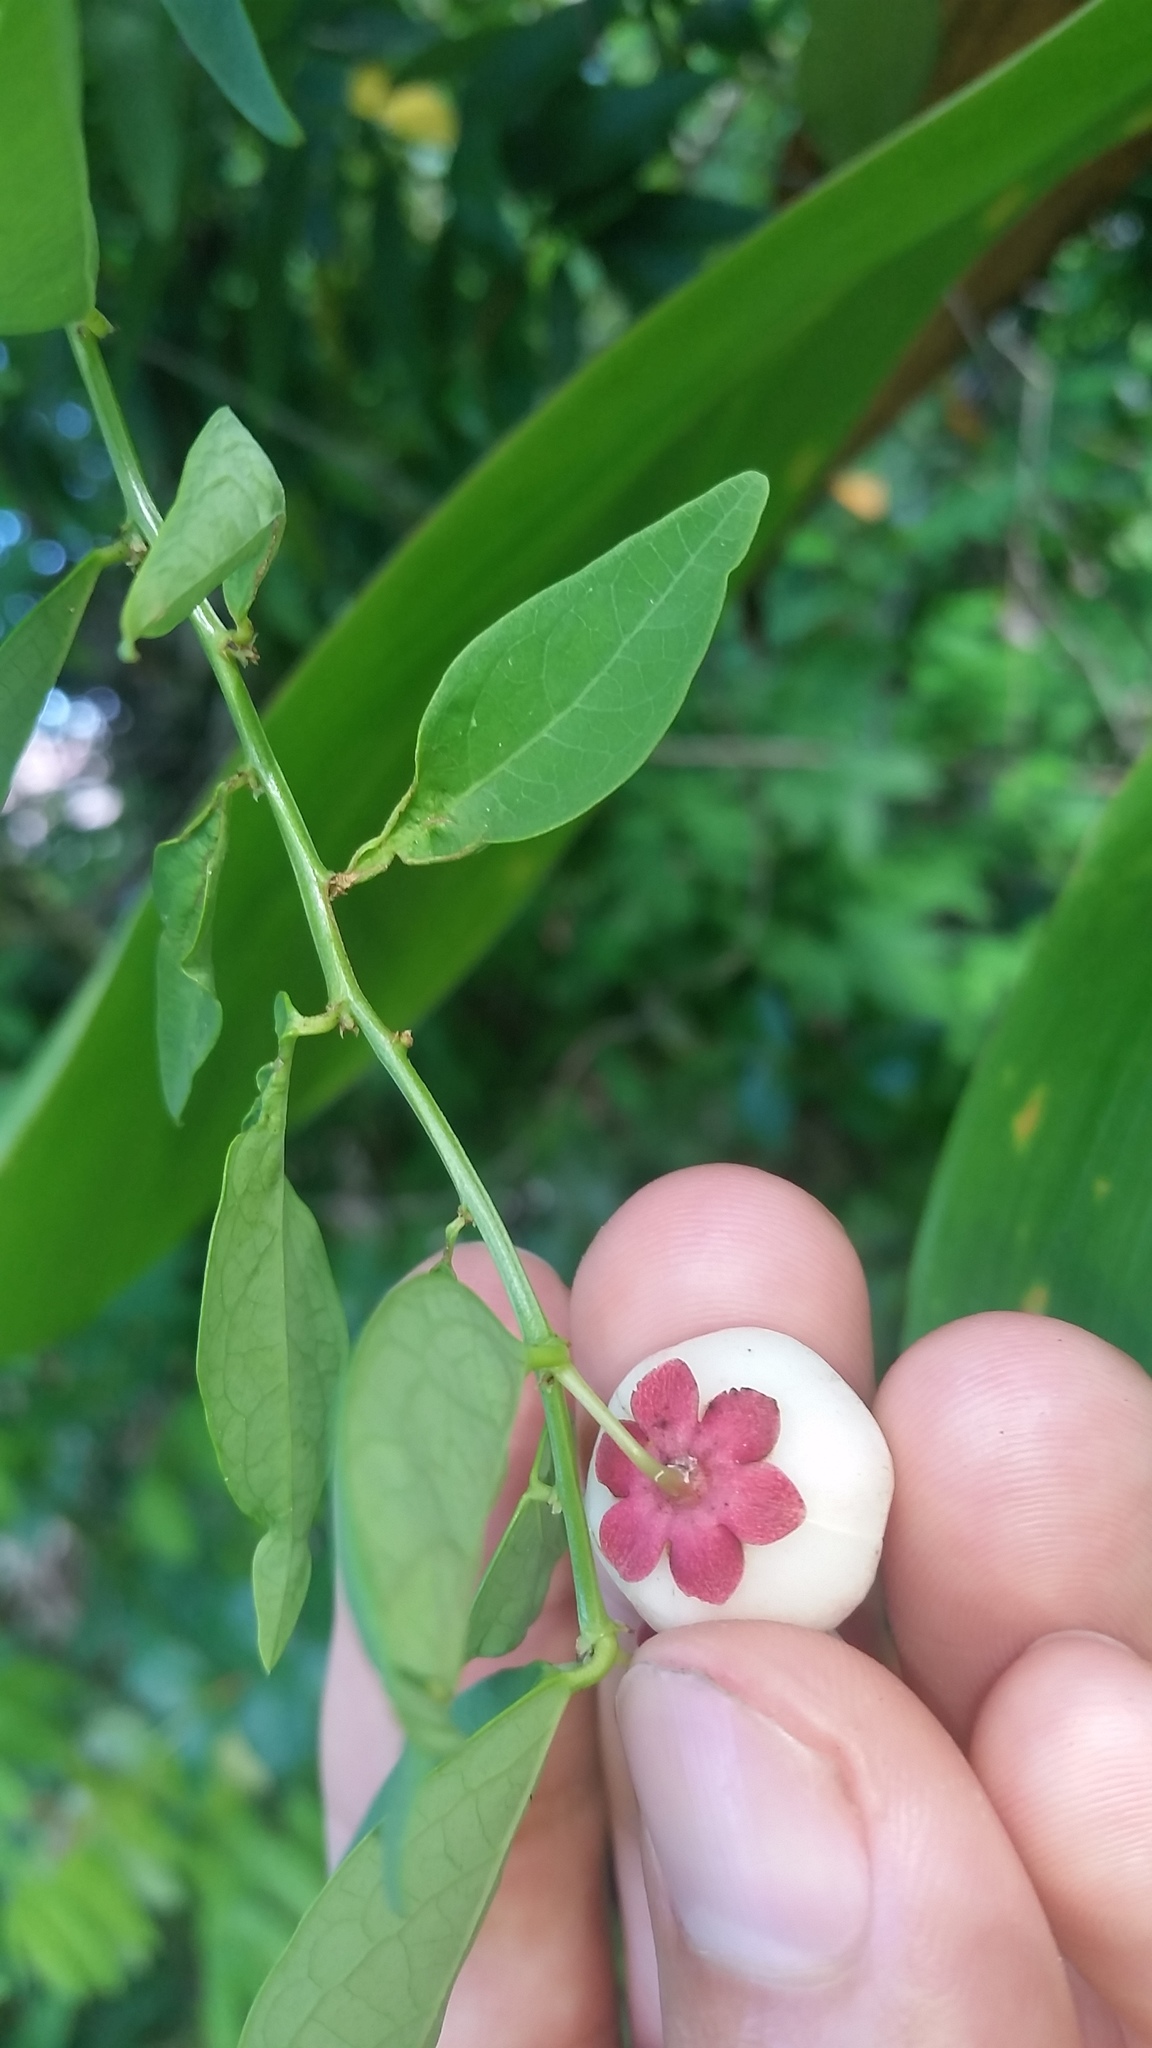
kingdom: Plantae
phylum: Tracheophyta
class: Magnoliopsida
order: Malpighiales
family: Phyllanthaceae
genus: Breynia
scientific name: Breynia androgyna
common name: Star gooseberry
